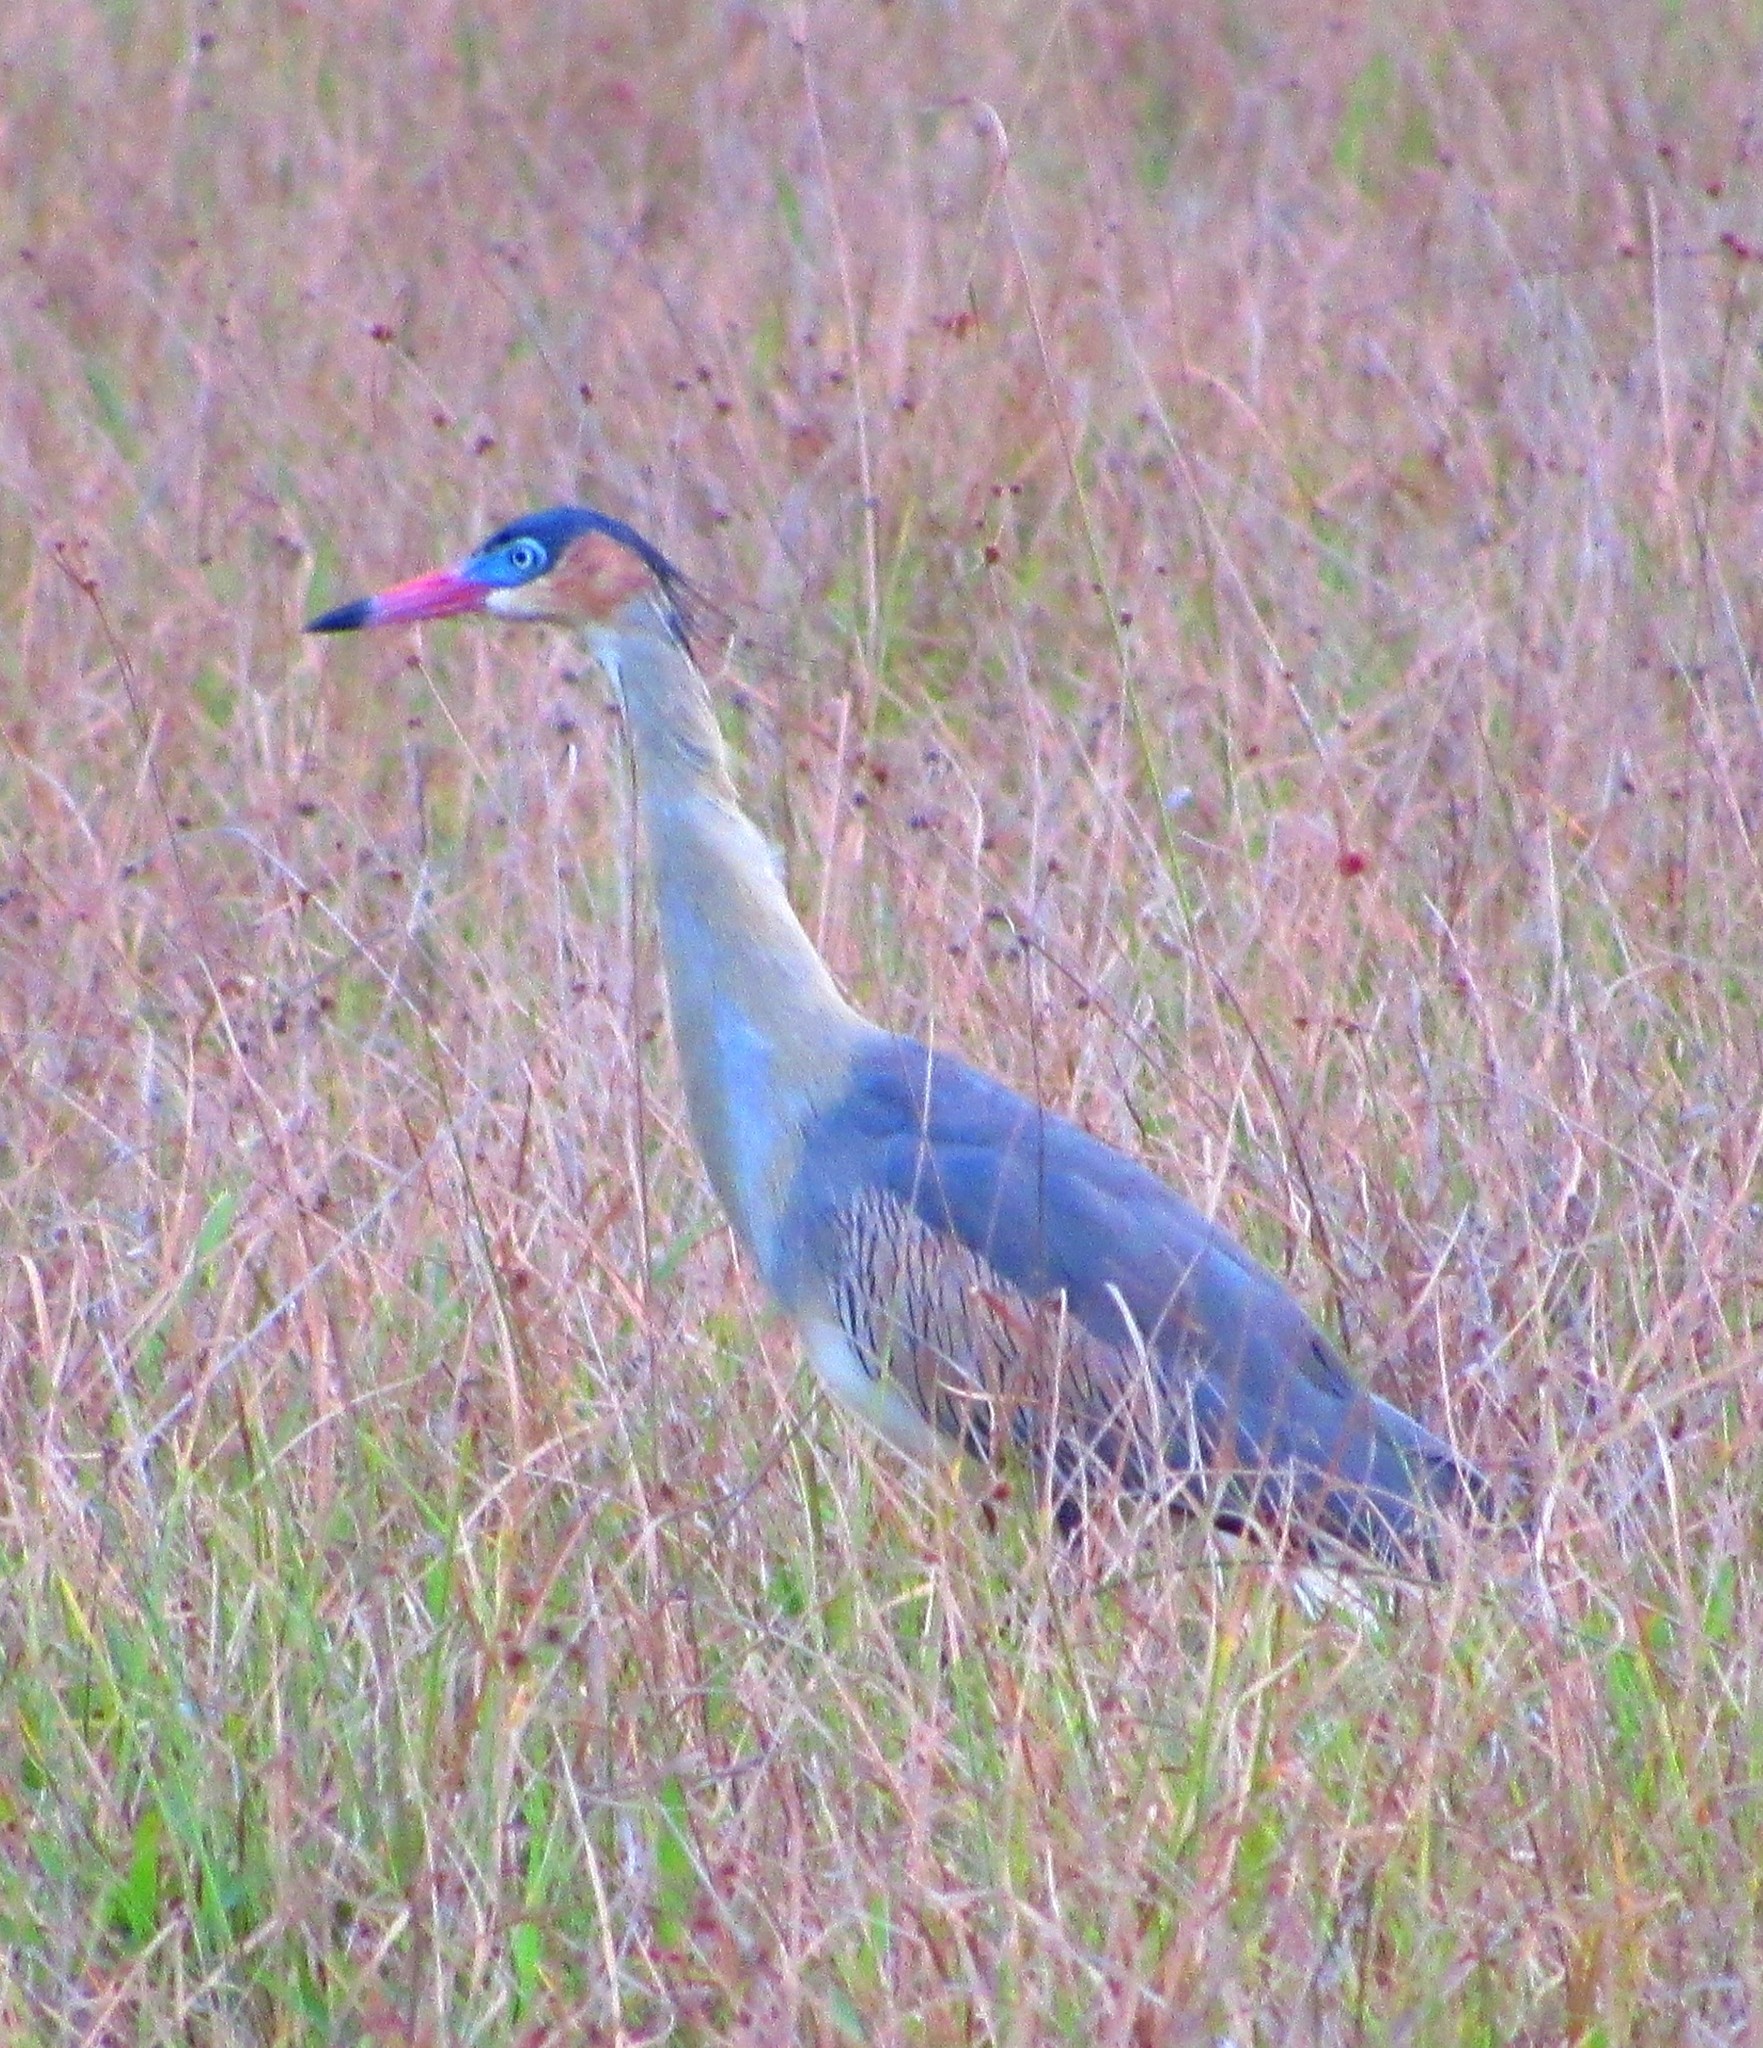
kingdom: Animalia
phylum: Chordata
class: Aves
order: Pelecaniformes
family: Ardeidae
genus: Syrigma
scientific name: Syrigma sibilatrix
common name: Whistling heron
